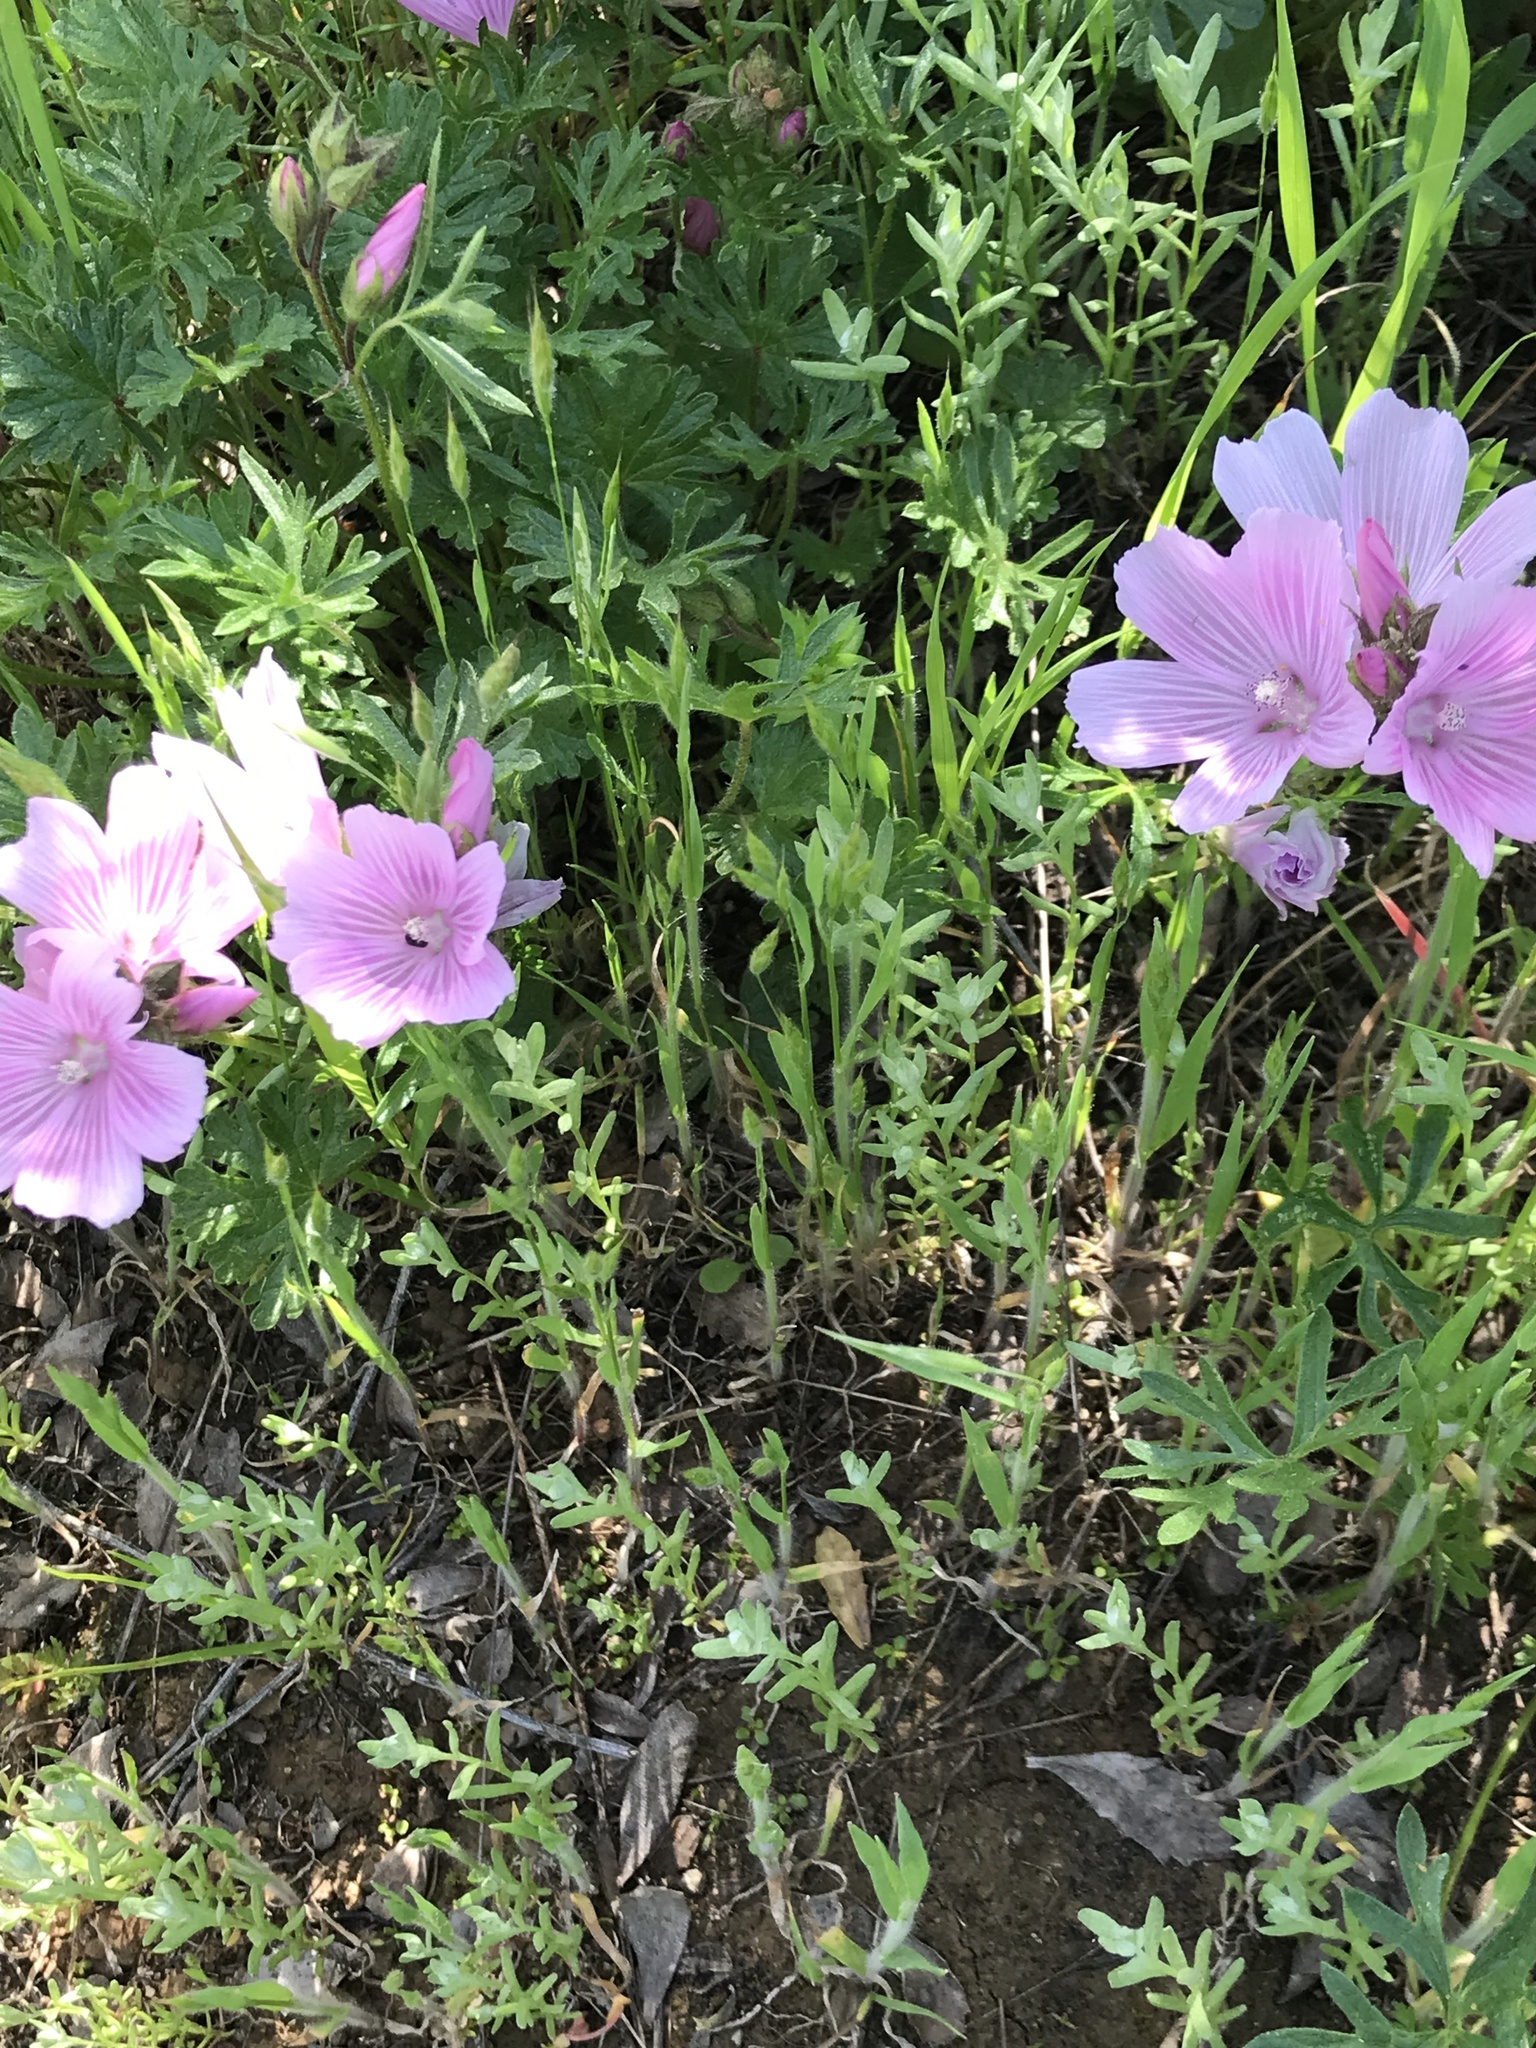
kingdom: Plantae
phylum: Tracheophyta
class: Magnoliopsida
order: Malvales
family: Malvaceae
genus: Sidalcea
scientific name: Sidalcea malviflora
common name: Greek mallow
